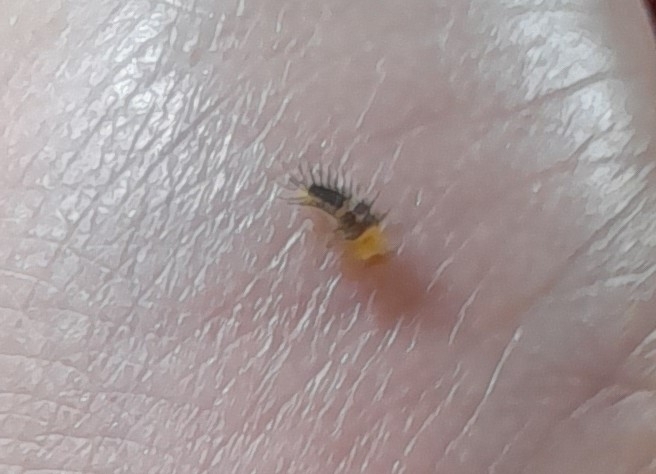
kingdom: Animalia
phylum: Arthropoda
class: Insecta
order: Coleoptera
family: Coccinellidae
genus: Halmus
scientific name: Halmus chalybeus
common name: Steel blue ladybird beetle
